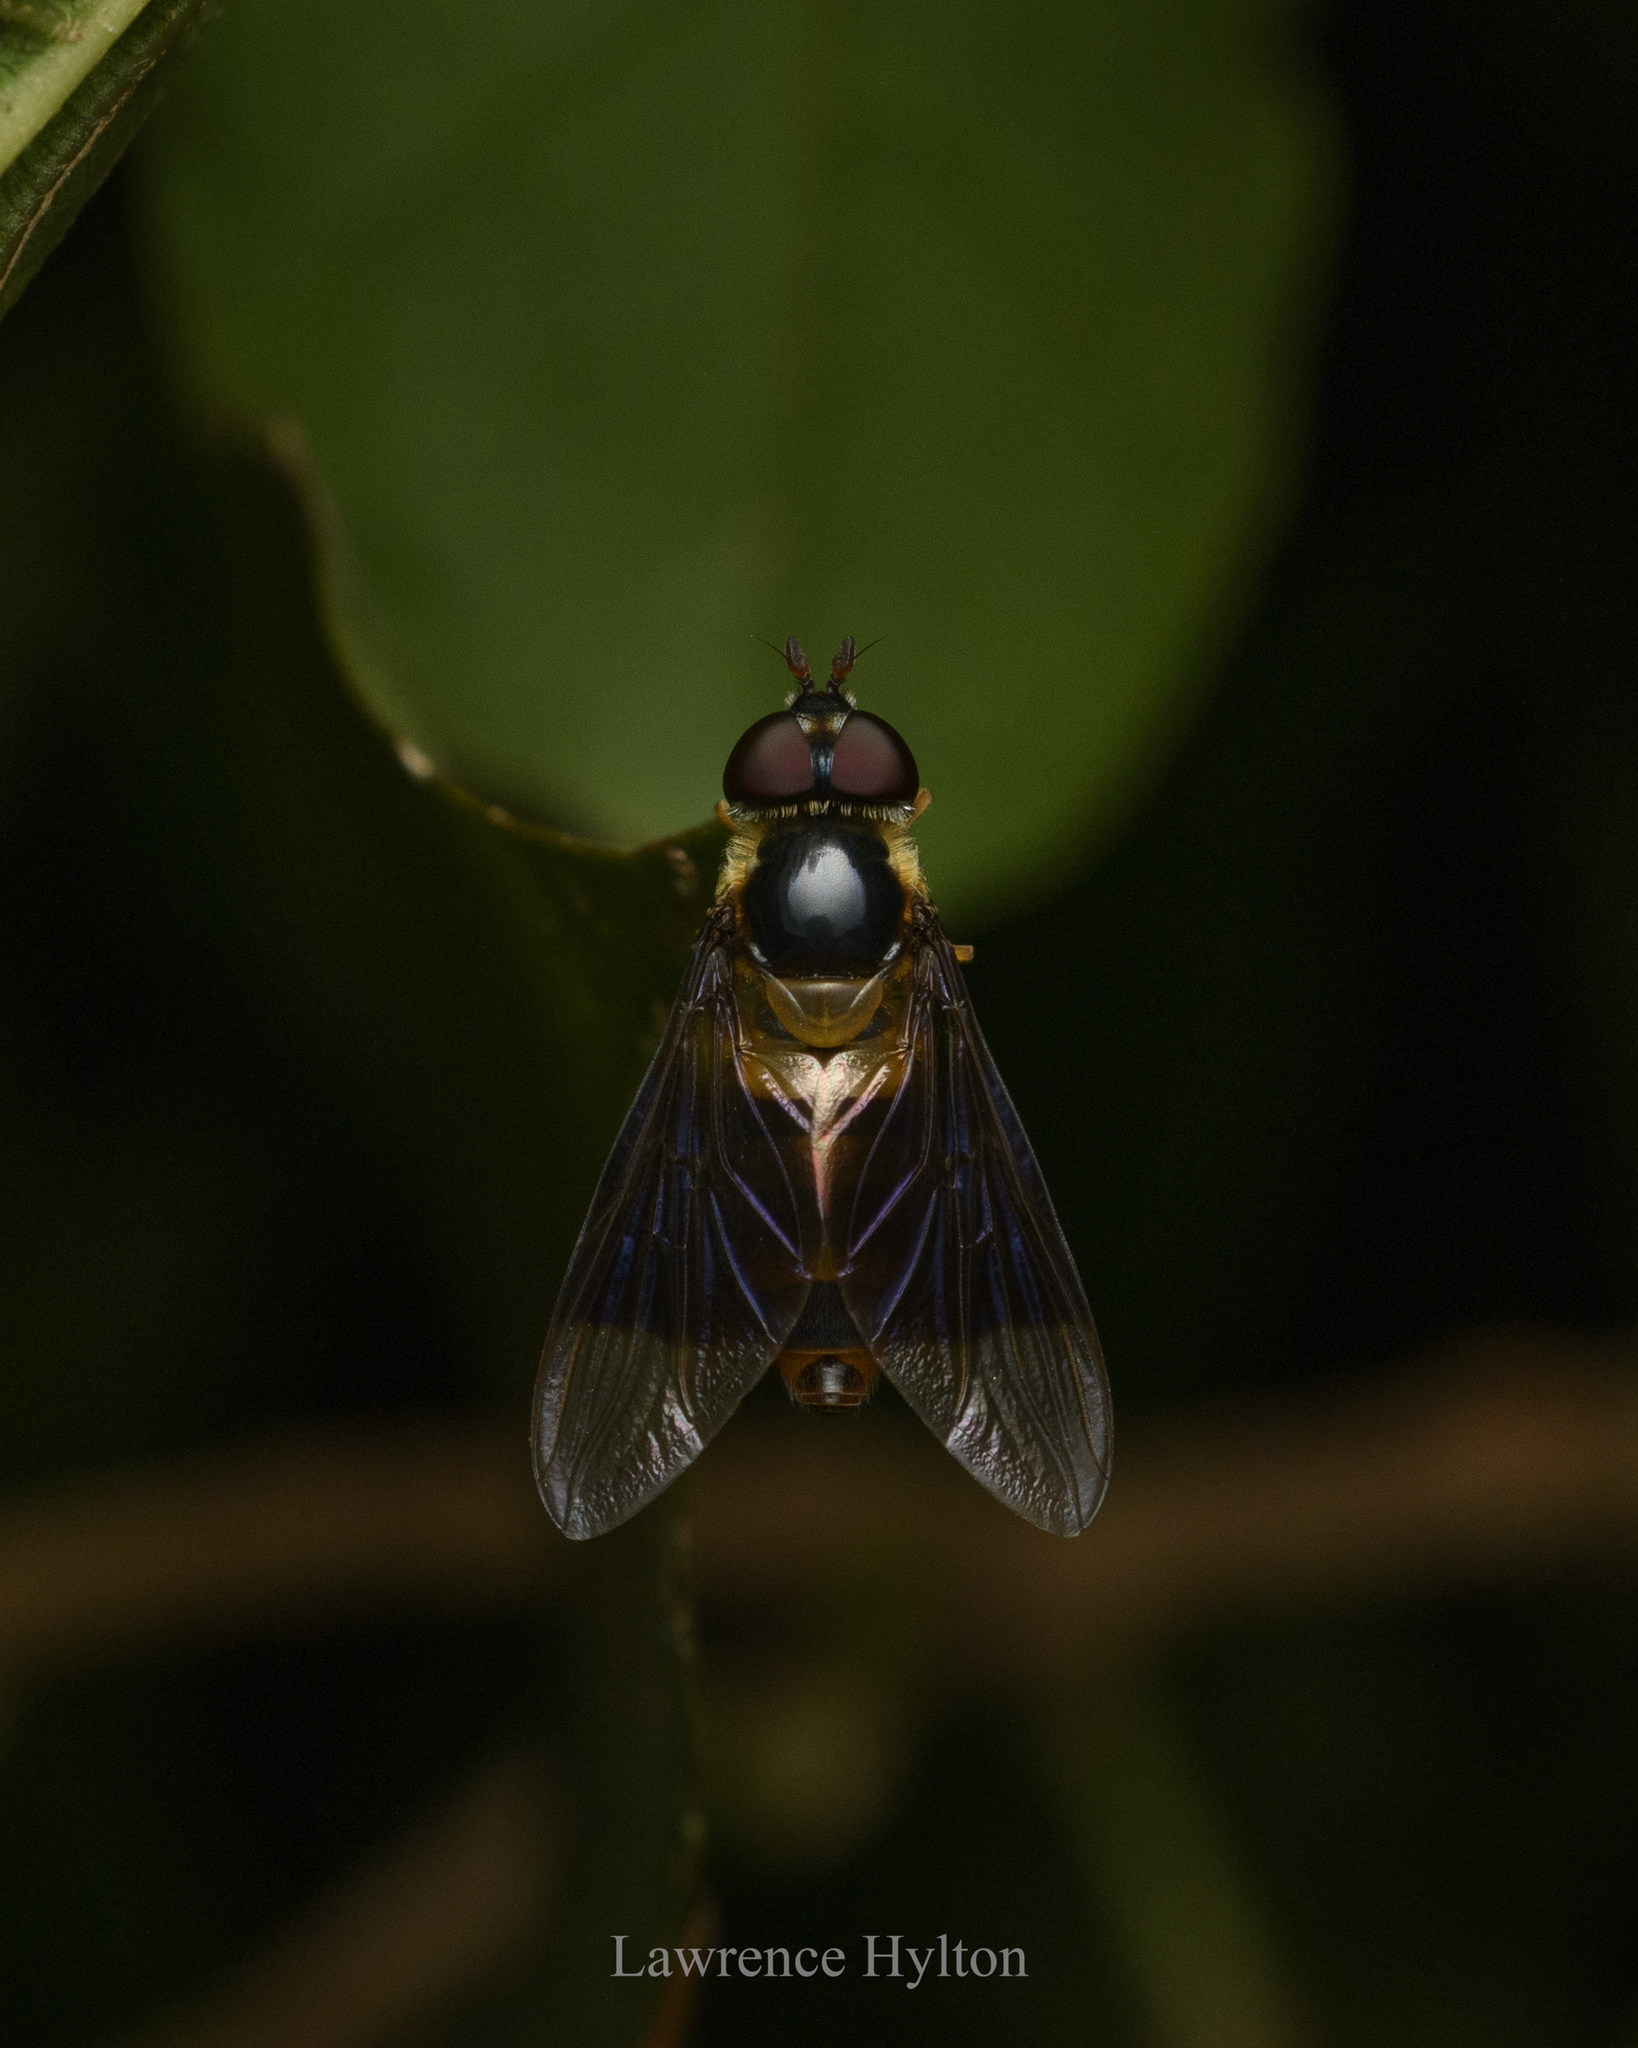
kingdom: Animalia
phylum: Arthropoda
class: Insecta
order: Diptera
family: Syrphidae
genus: Dideopsis
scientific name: Dideopsis aegrota
